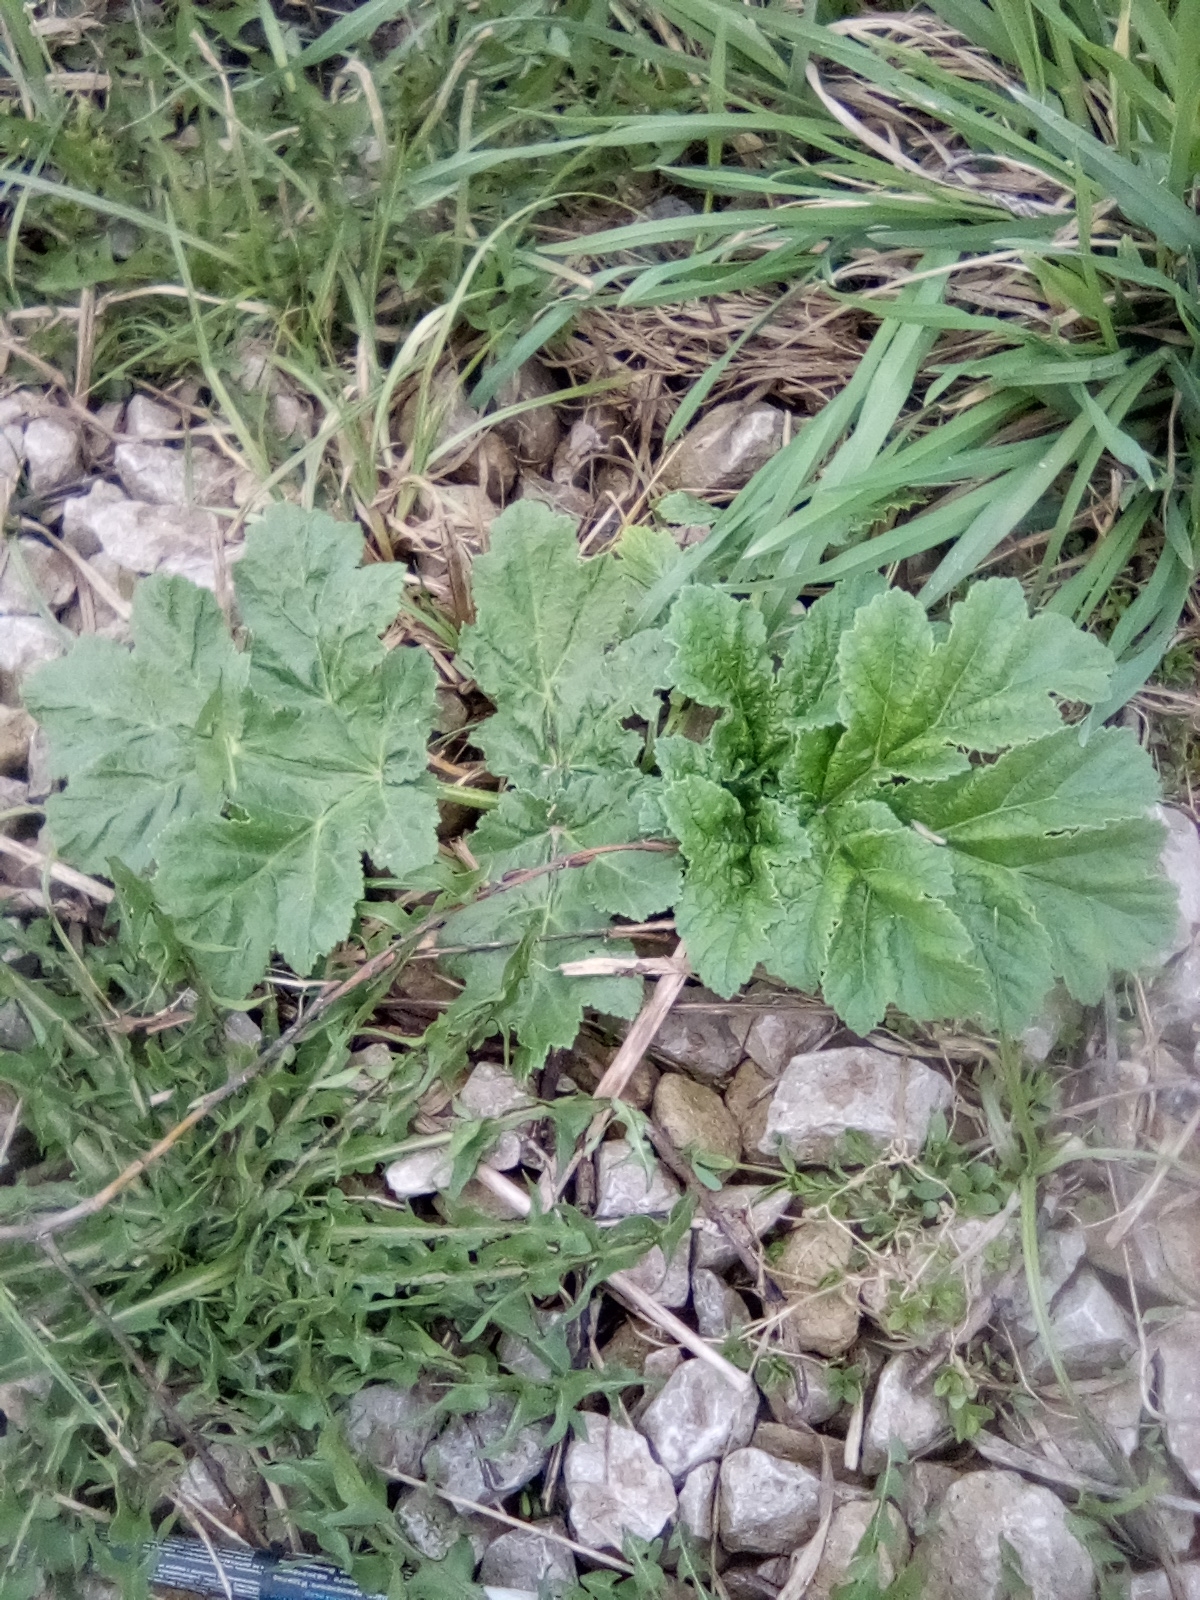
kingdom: Plantae
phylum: Tracheophyta
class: Magnoliopsida
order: Apiales
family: Apiaceae
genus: Heracleum
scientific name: Heracleum sosnowskyi
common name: Sosnowsky's hogweed
